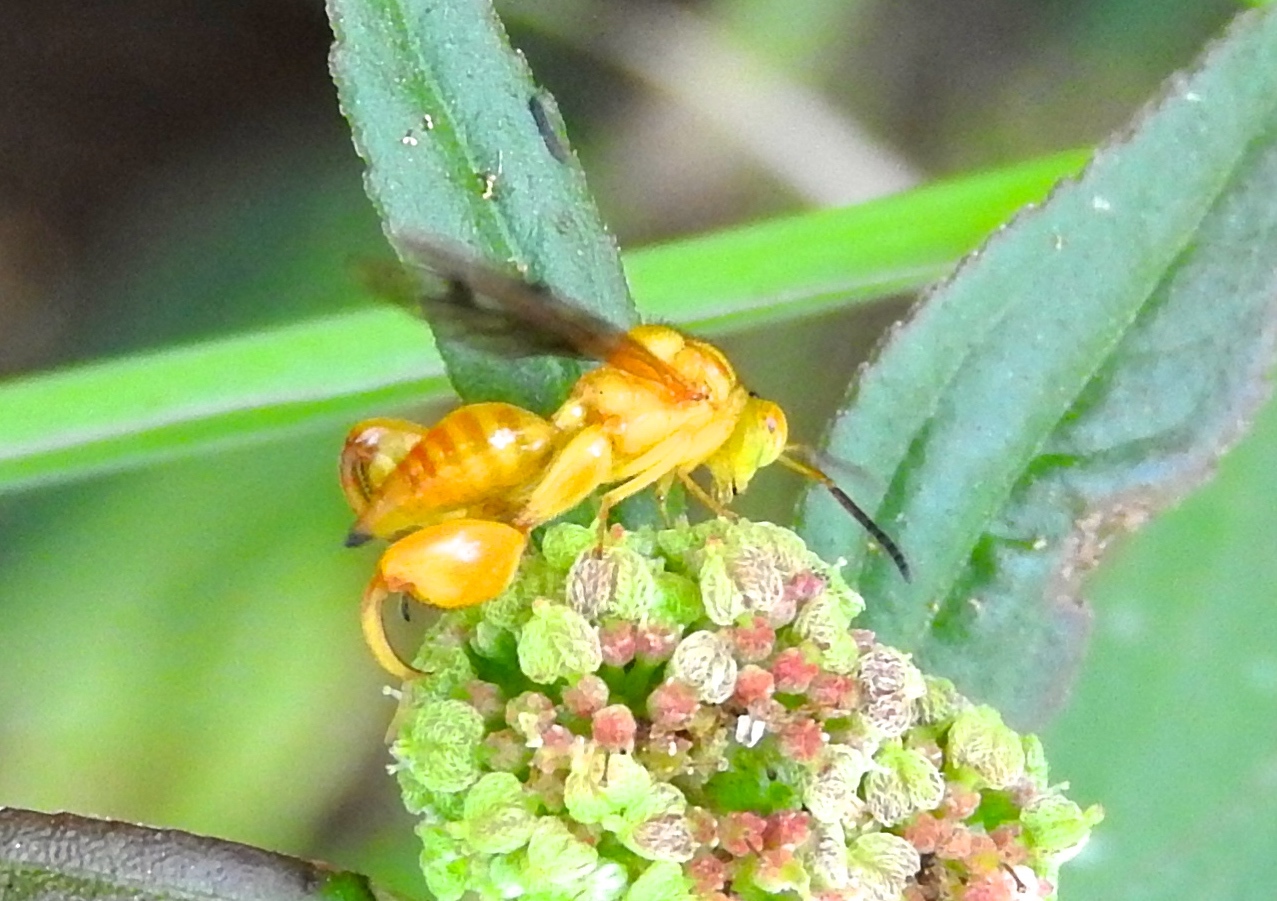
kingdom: Animalia
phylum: Arthropoda
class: Insecta
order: Hymenoptera
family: Chalcididae
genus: Conura
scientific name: Conura
